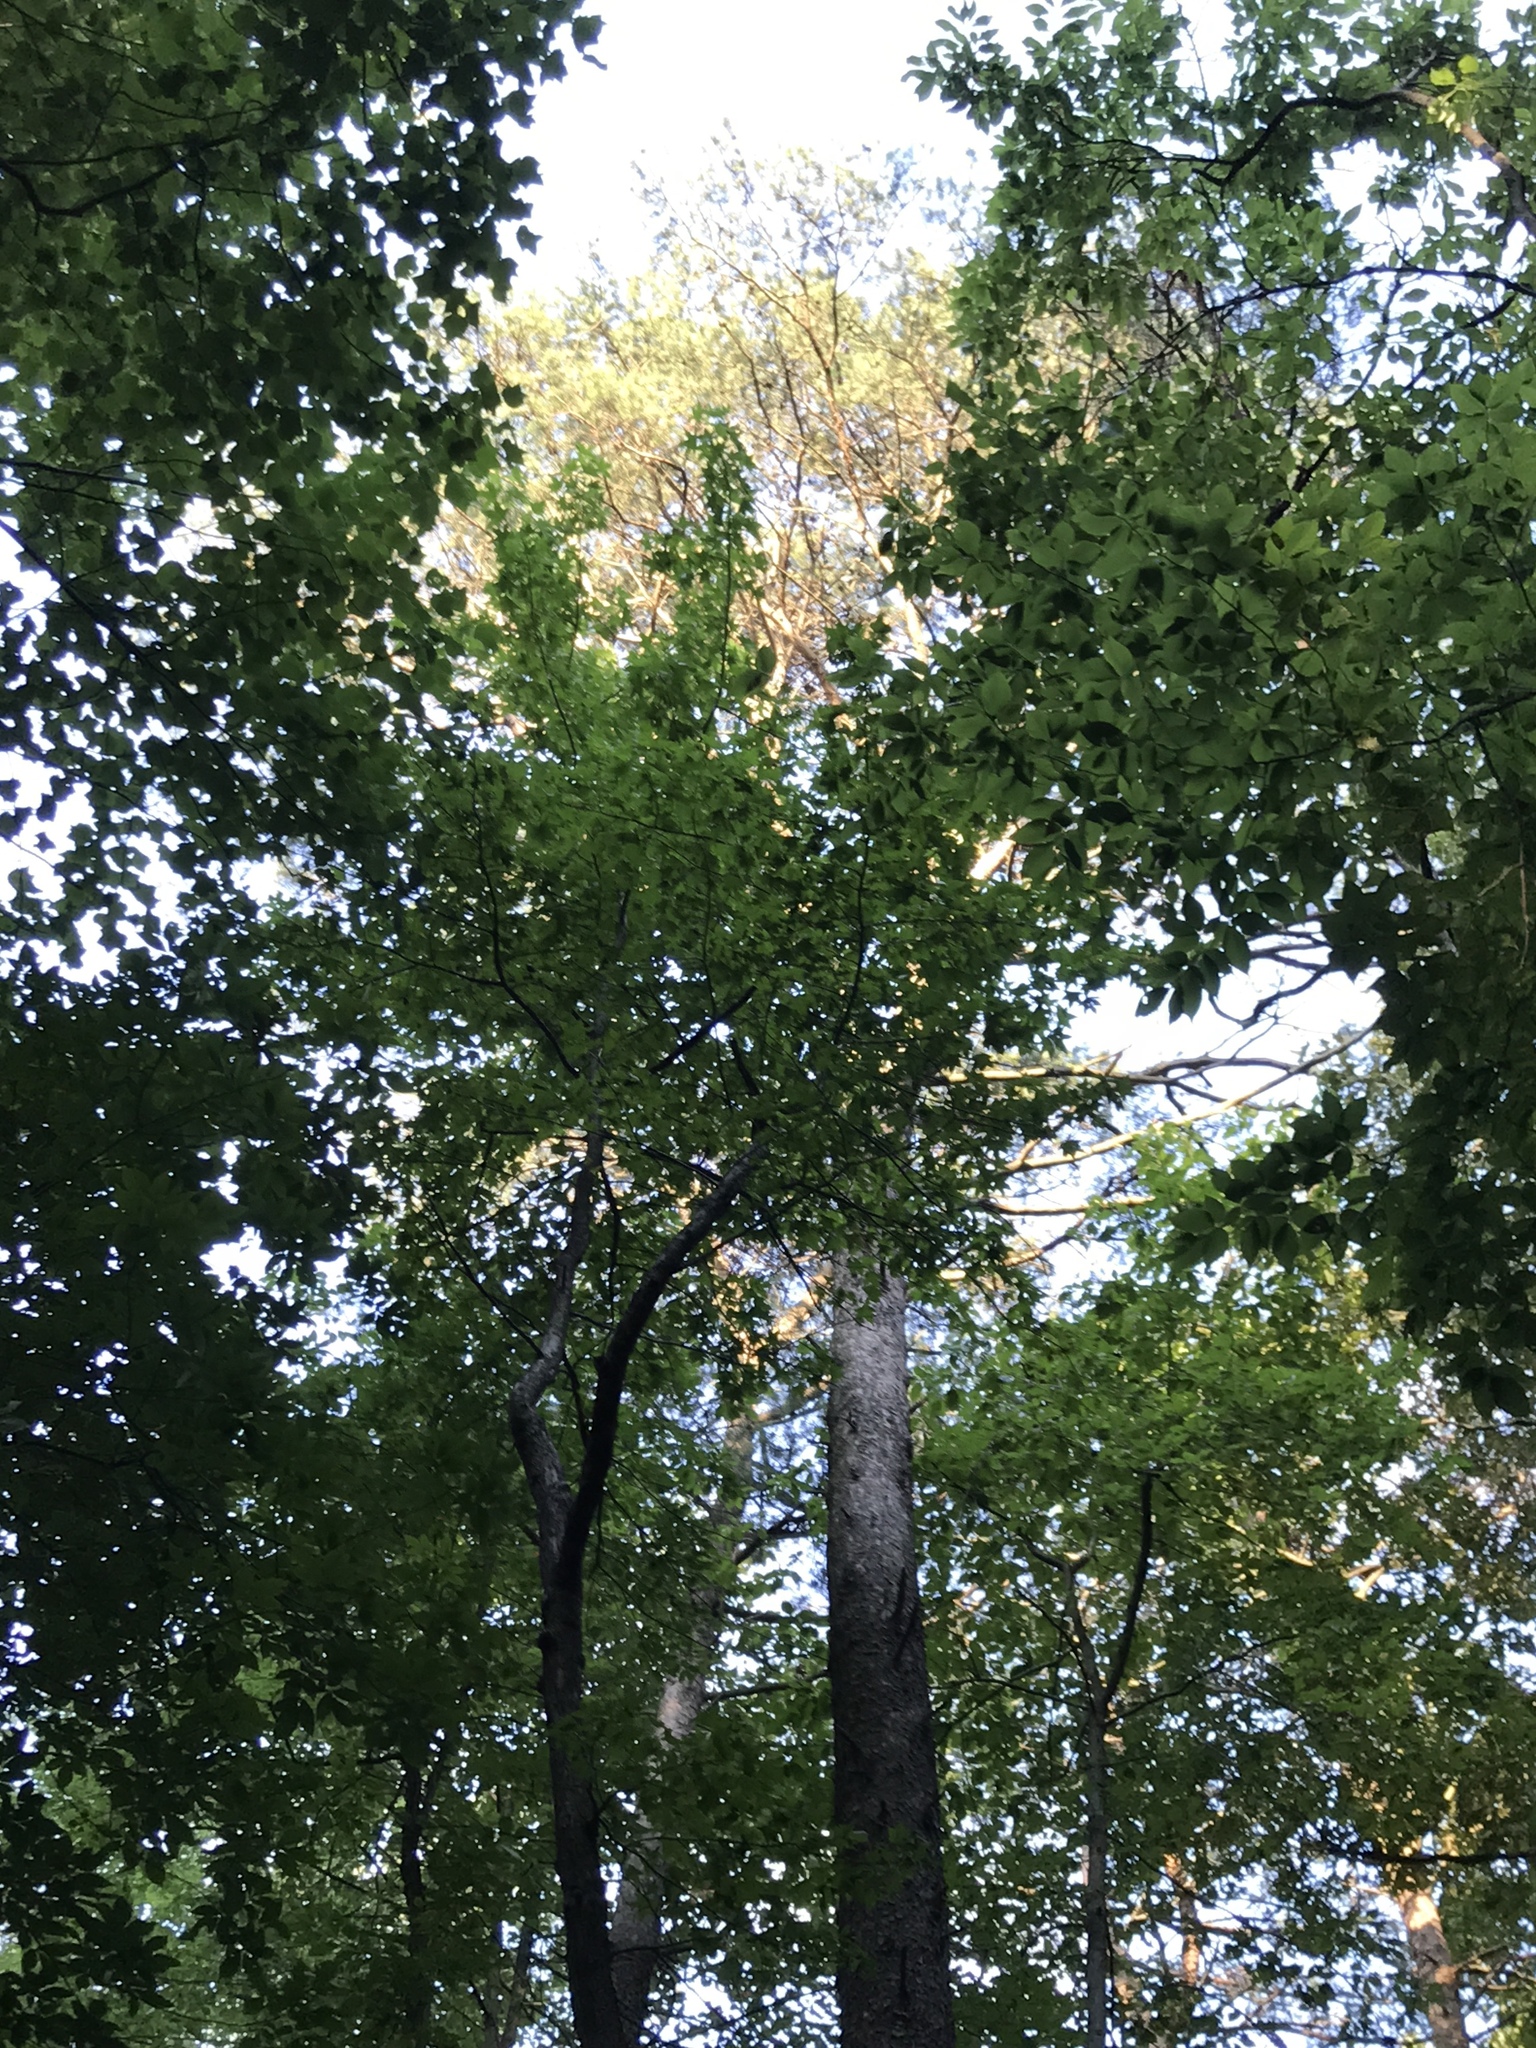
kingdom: Plantae
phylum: Tracheophyta
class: Pinopsida
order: Pinales
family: Pinaceae
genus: Pinus
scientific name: Pinus virginiana
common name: Scrub pine
